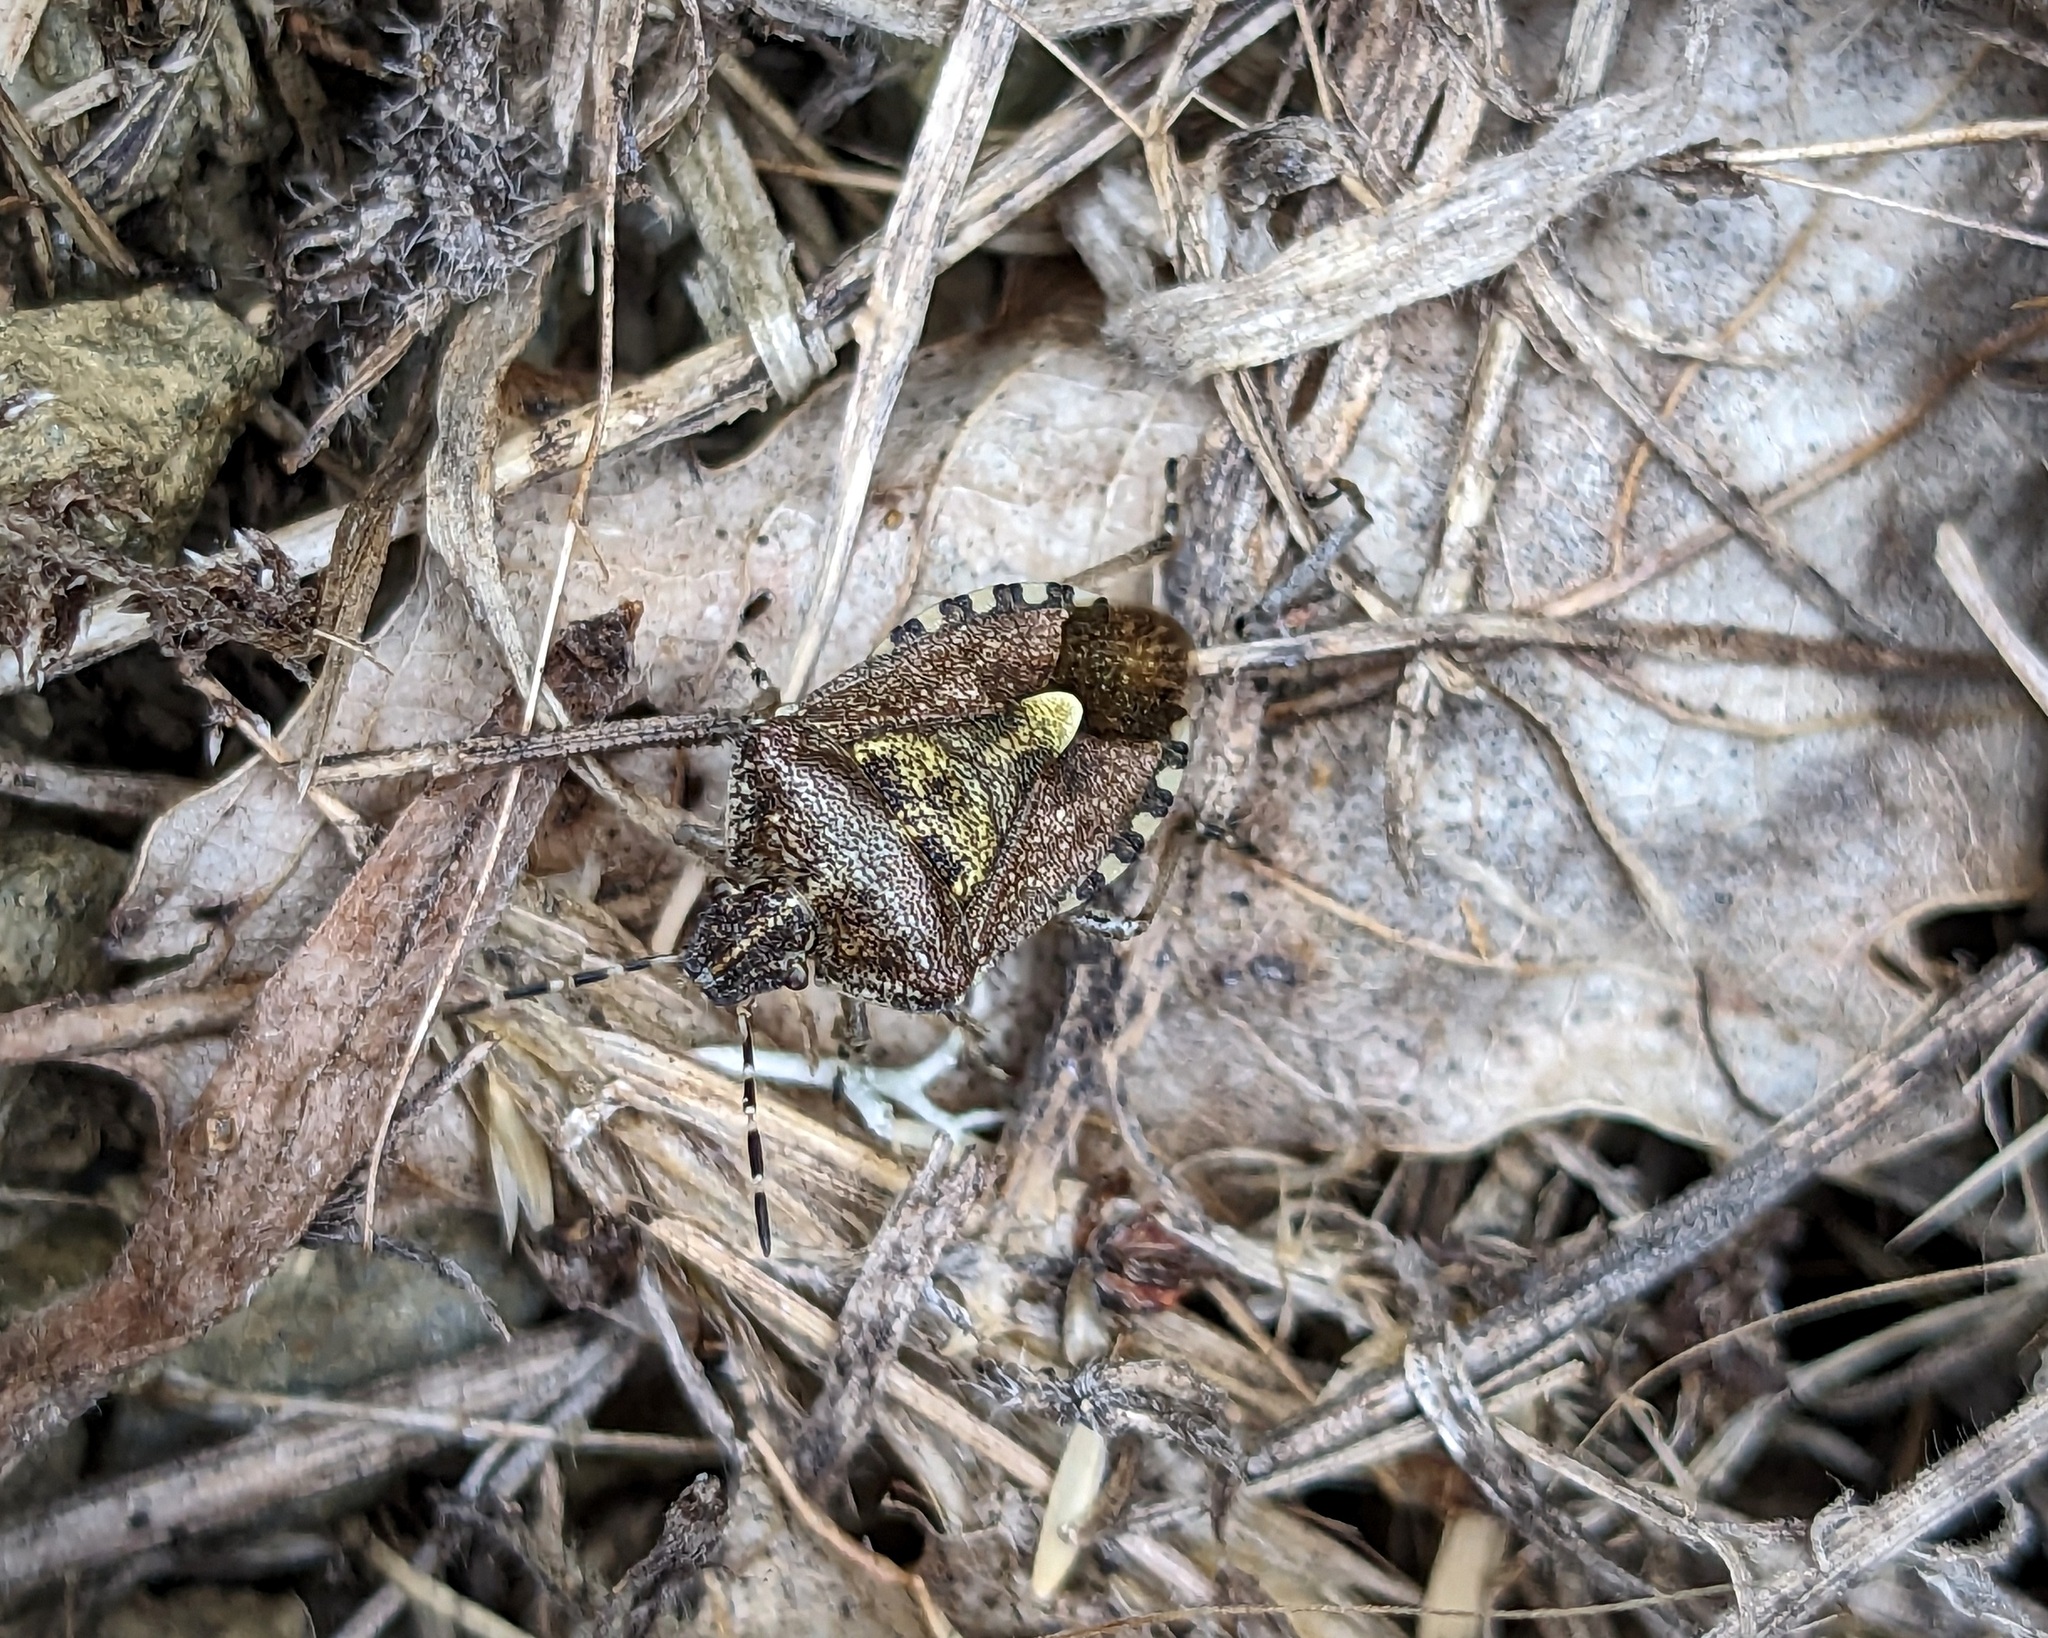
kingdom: Animalia
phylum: Arthropoda
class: Insecta
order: Hemiptera
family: Pentatomidae
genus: Dolycoris
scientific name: Dolycoris baccarum
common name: Sloe bug
